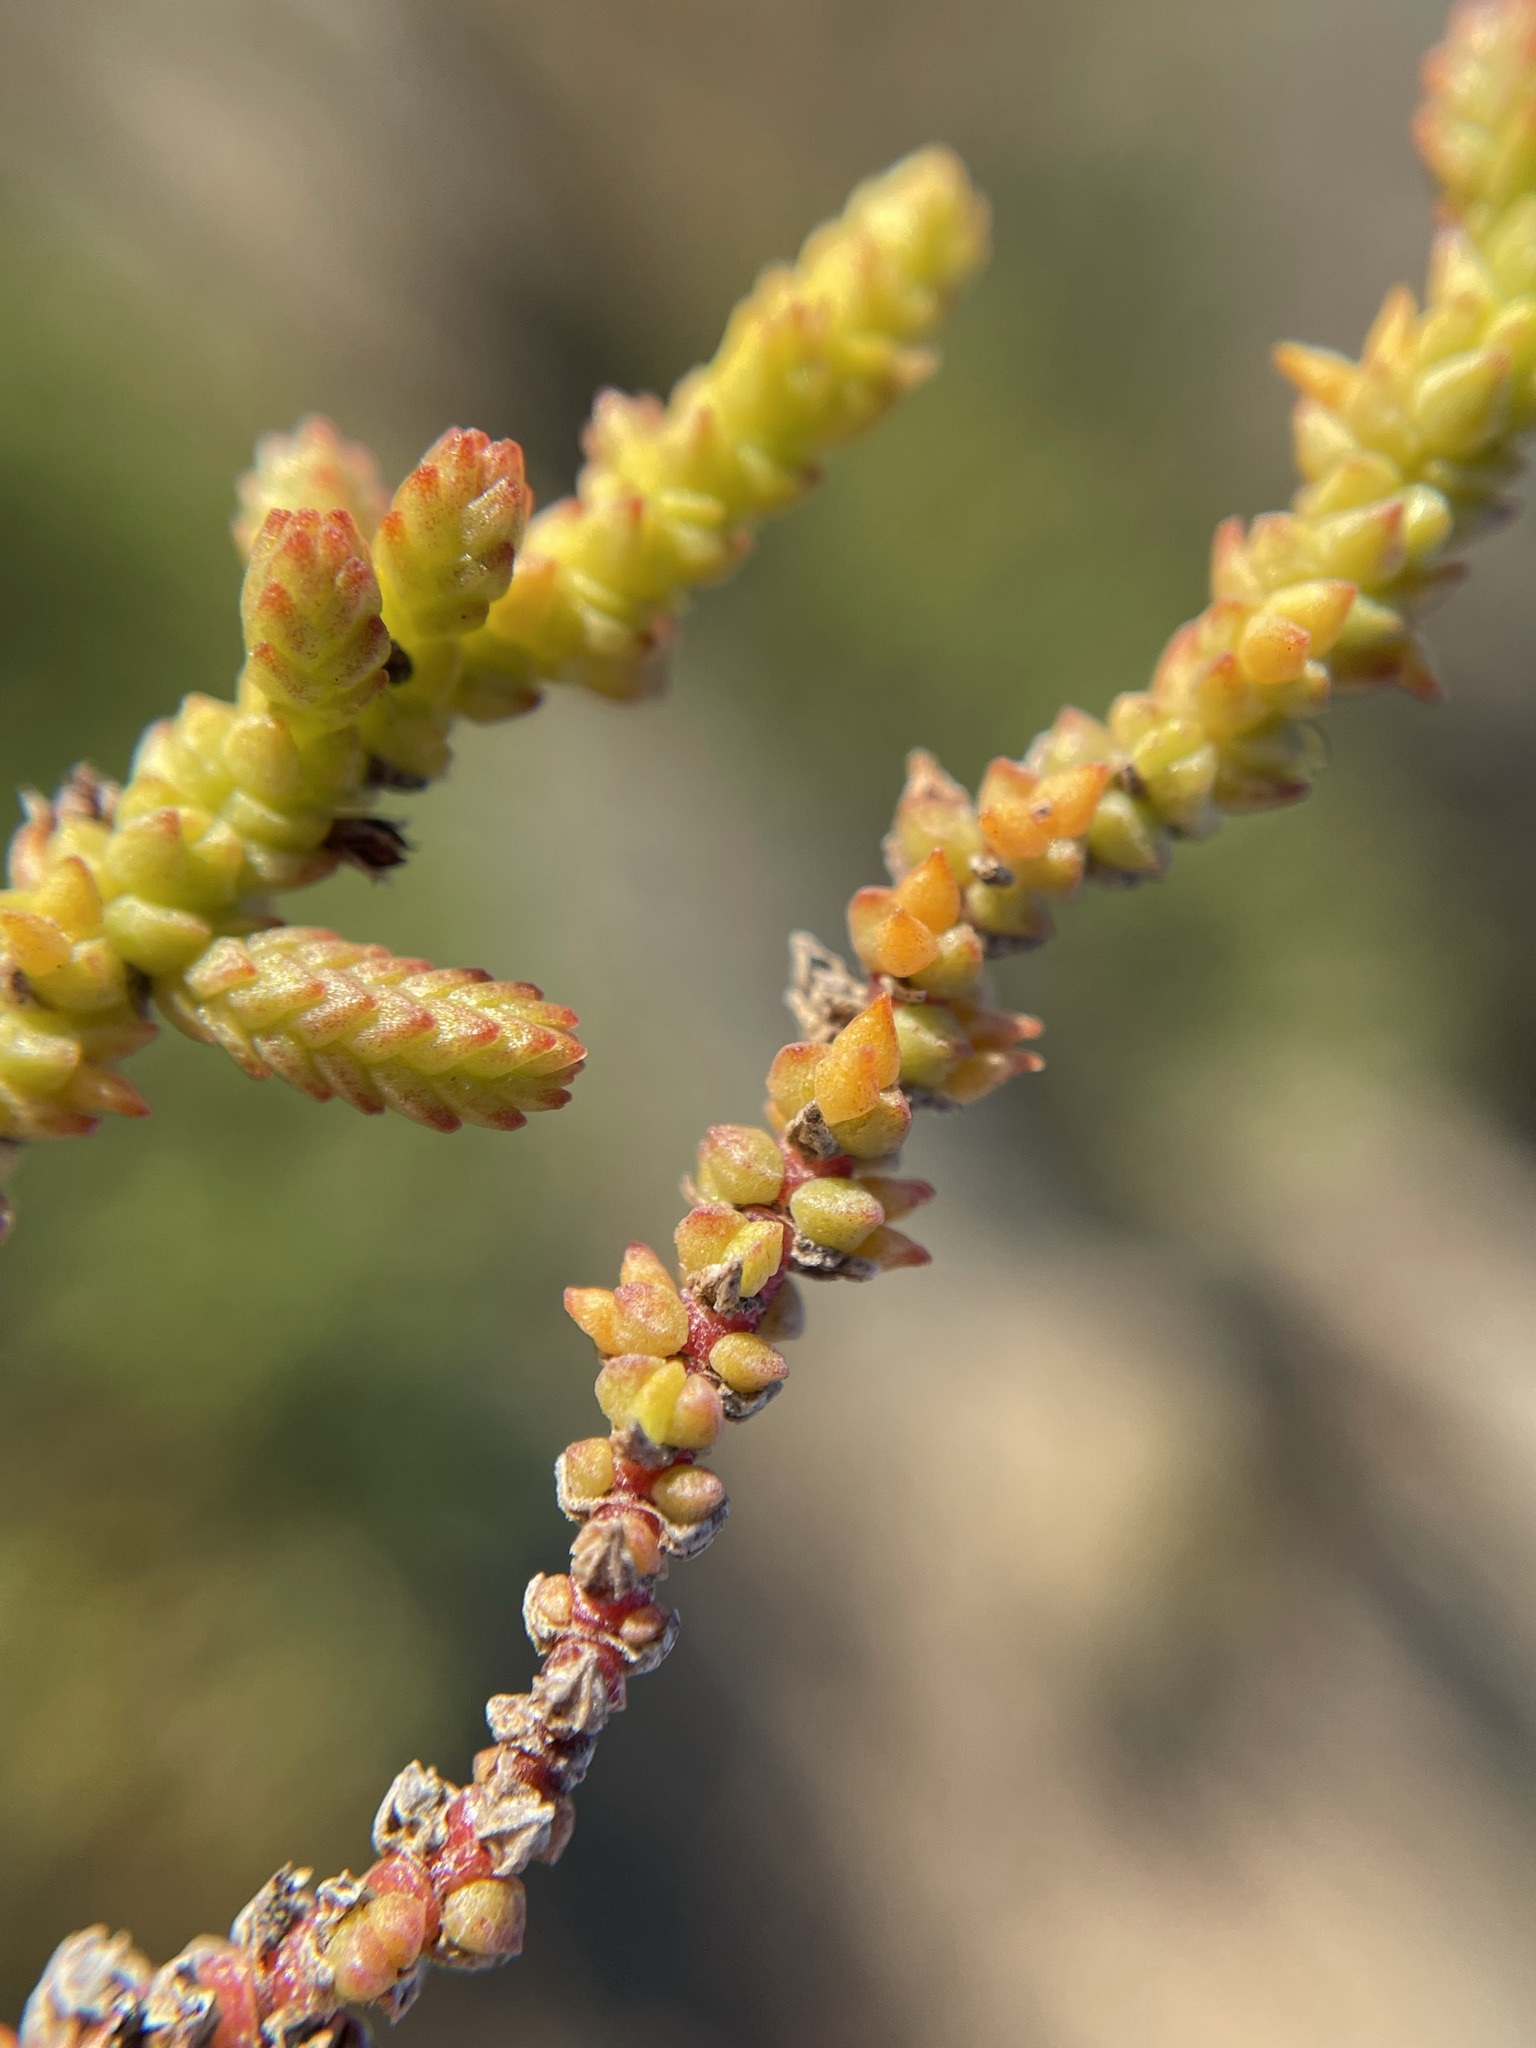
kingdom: Plantae
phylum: Tracheophyta
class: Magnoliopsida
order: Saxifragales
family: Crassulaceae
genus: Crassula
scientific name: Crassula muscosa
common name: Toy-cypress
